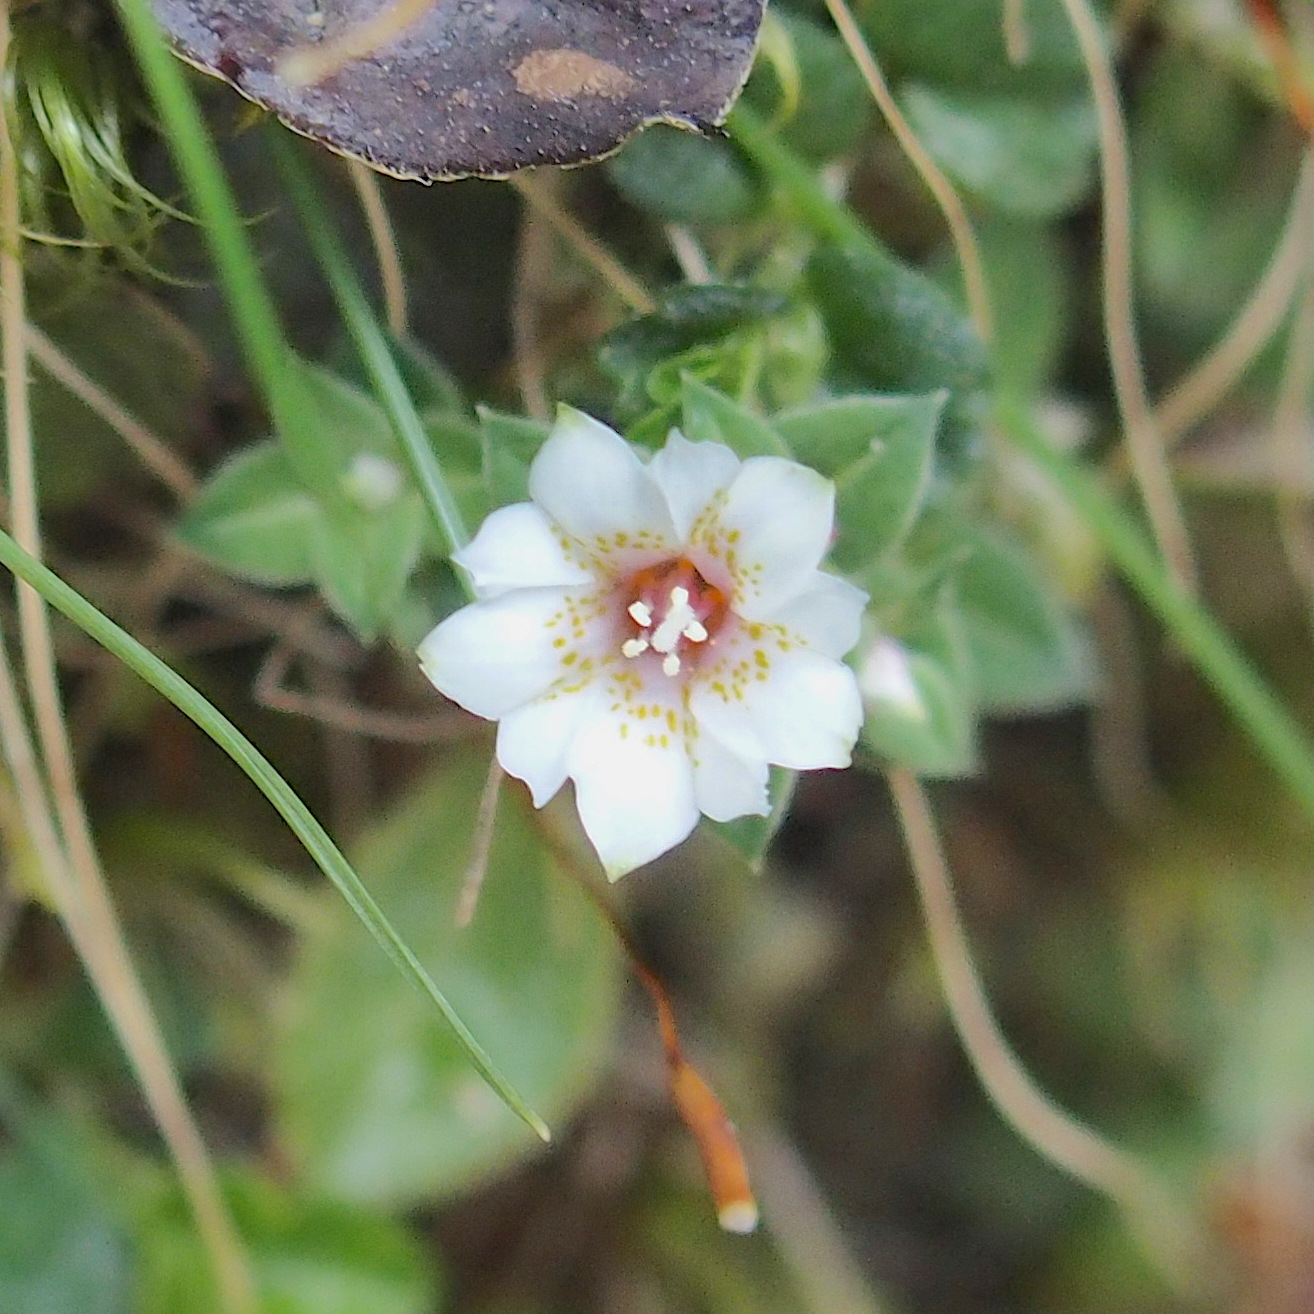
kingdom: Plantae
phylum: Tracheophyta
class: Magnoliopsida
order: Gentianales
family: Gentianaceae
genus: Gentiana
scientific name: Gentiana scabrida
